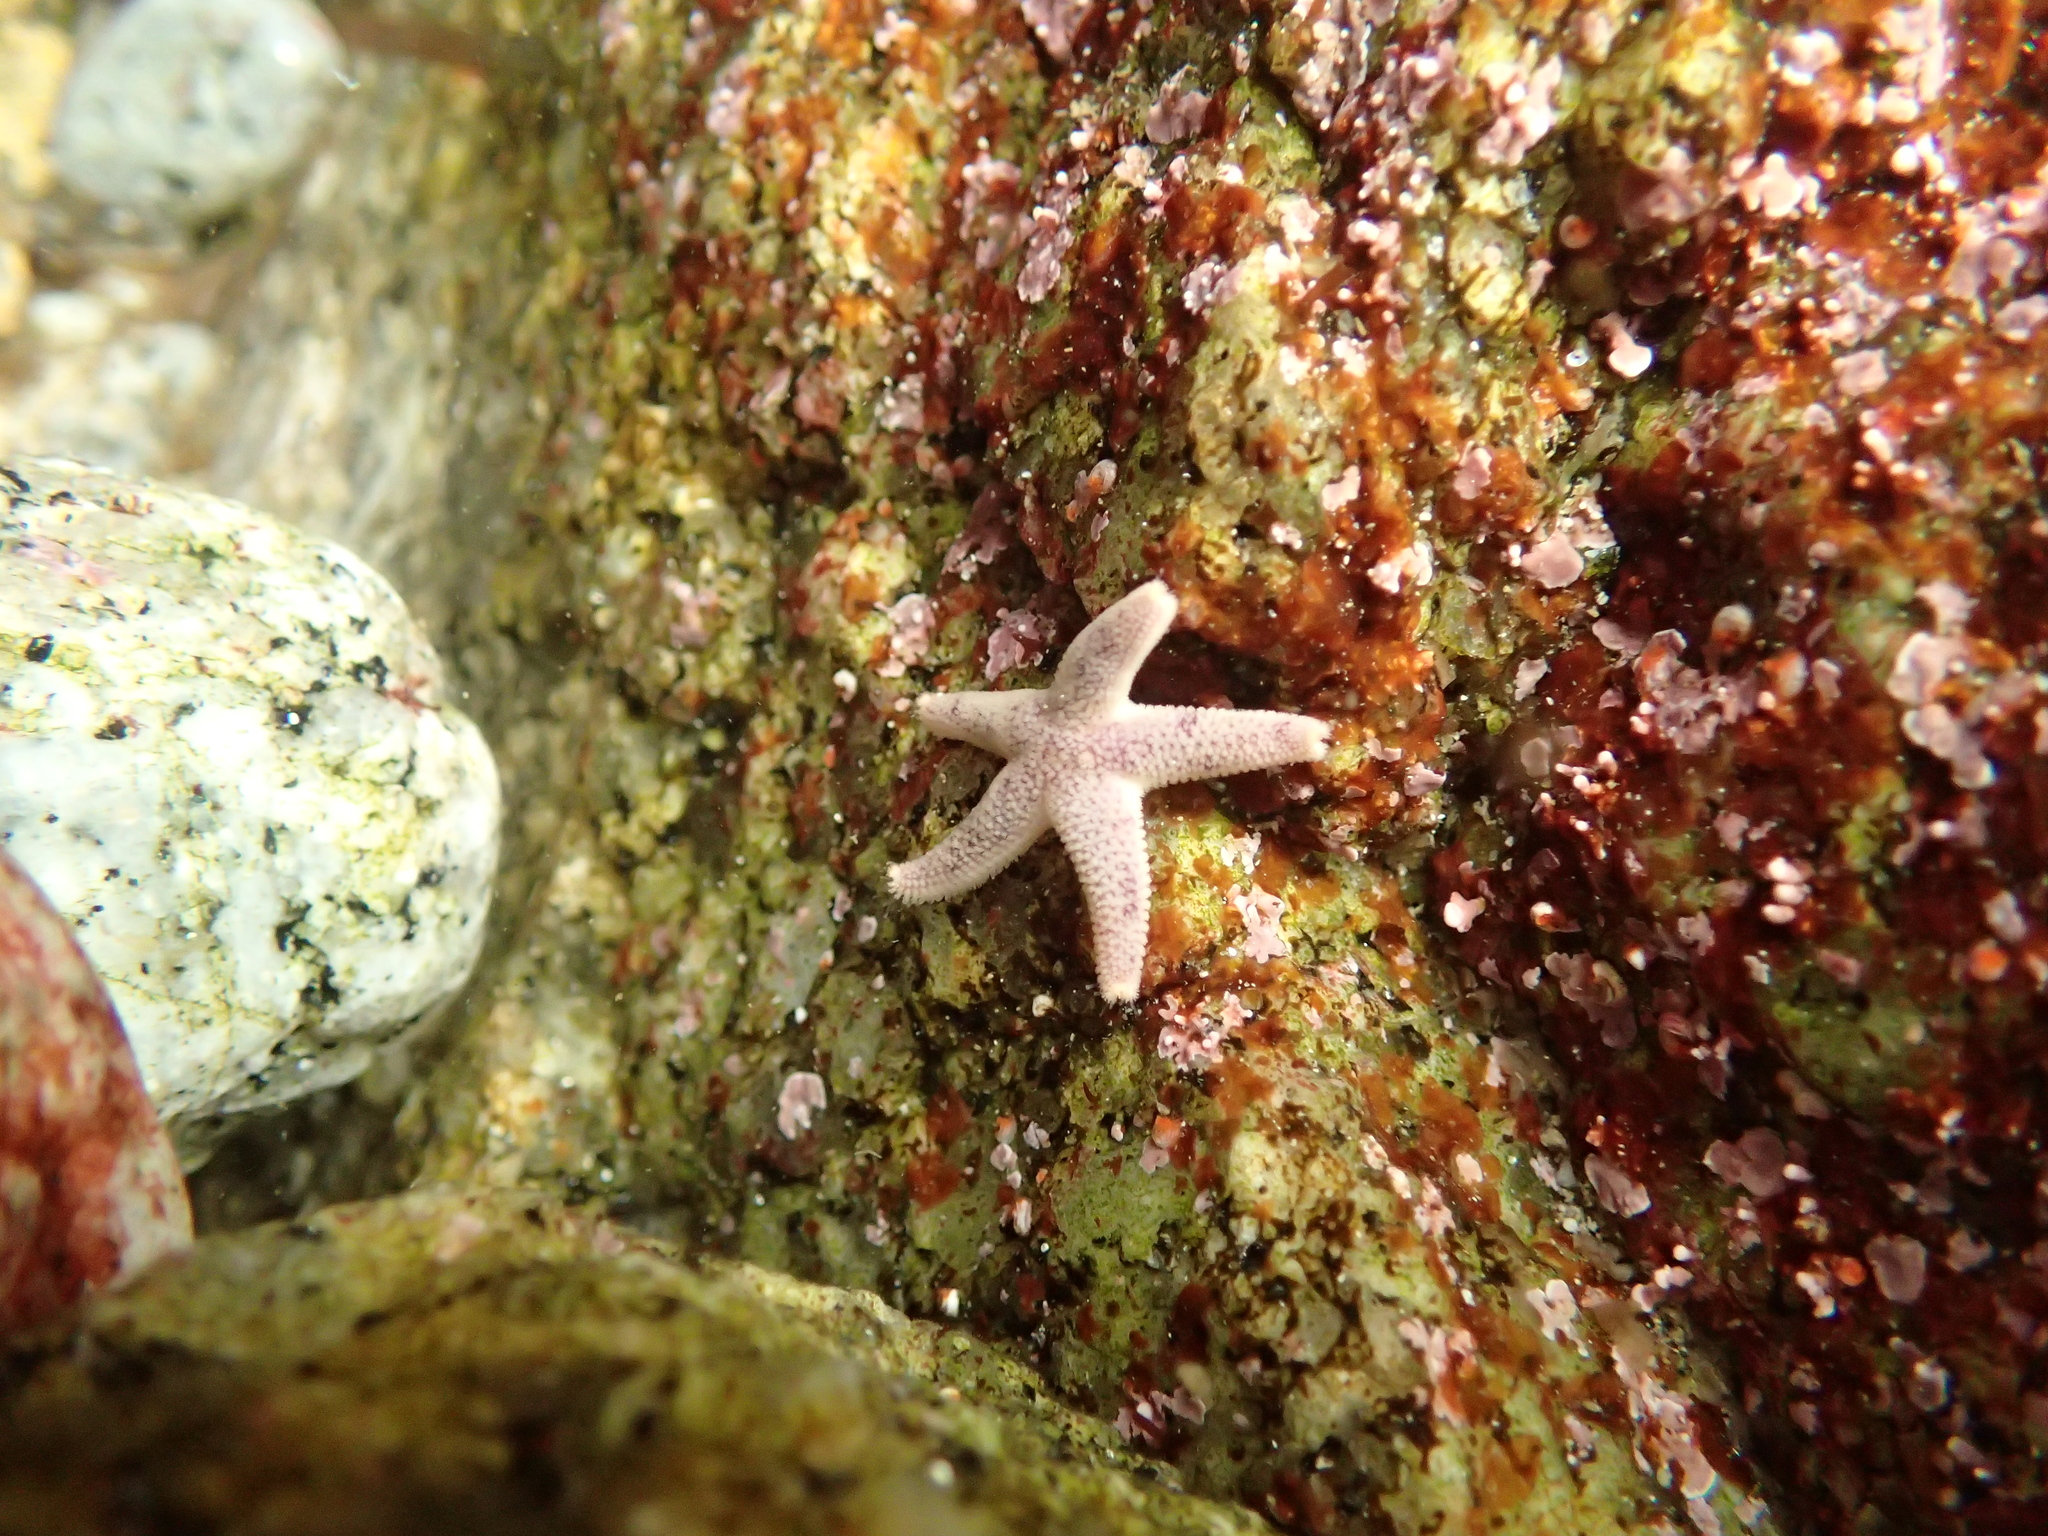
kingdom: Animalia
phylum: Echinodermata
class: Asteroidea
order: Spinulosida
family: Echinasteridae
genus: Henricia
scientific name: Henricia pumila
